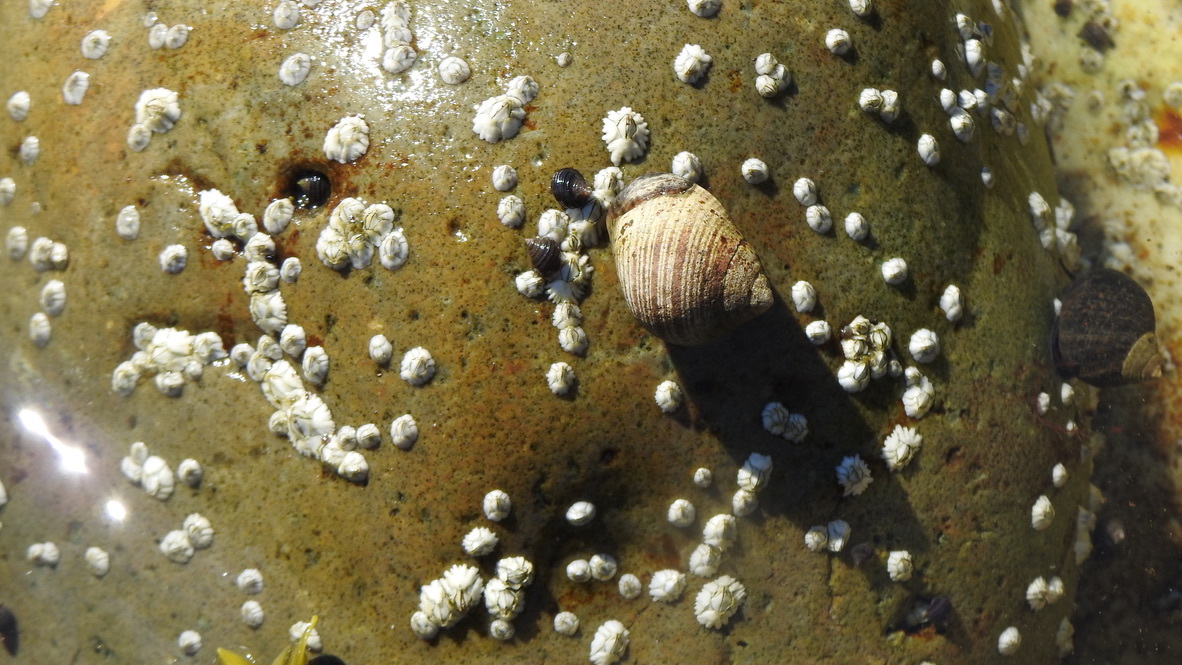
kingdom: Animalia
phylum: Arthropoda
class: Maxillopoda
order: Sessilia
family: Archaeobalanidae
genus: Semibalanus
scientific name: Semibalanus balanoides
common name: Acorn barnacle
